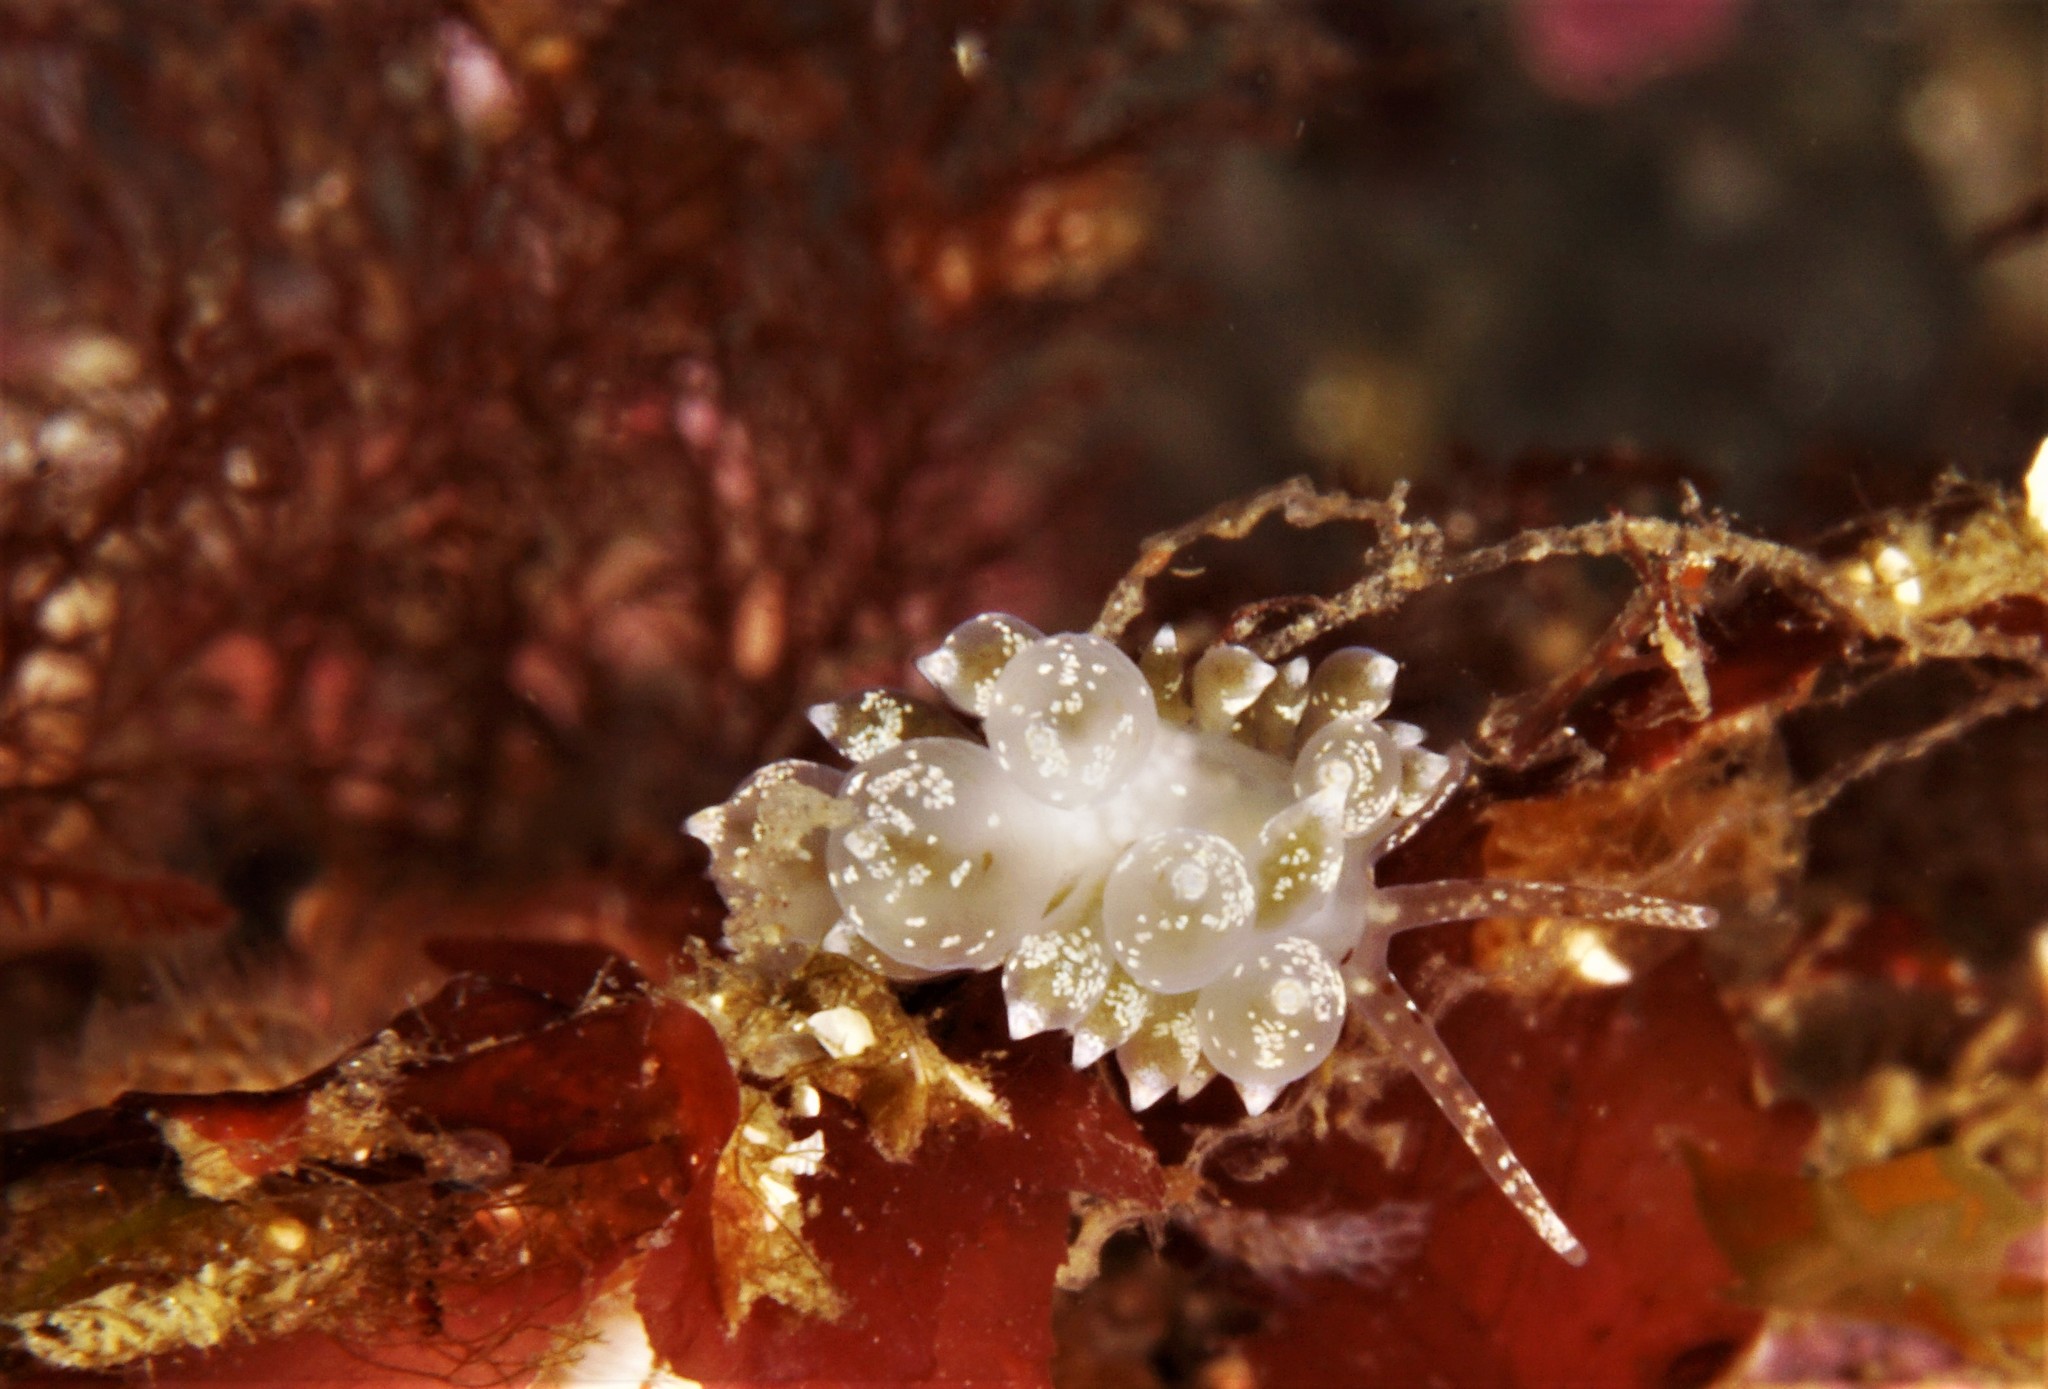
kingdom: Animalia
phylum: Mollusca
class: Gastropoda
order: Nudibranchia
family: Eubranchidae
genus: Amphorina
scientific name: Amphorina pallida
